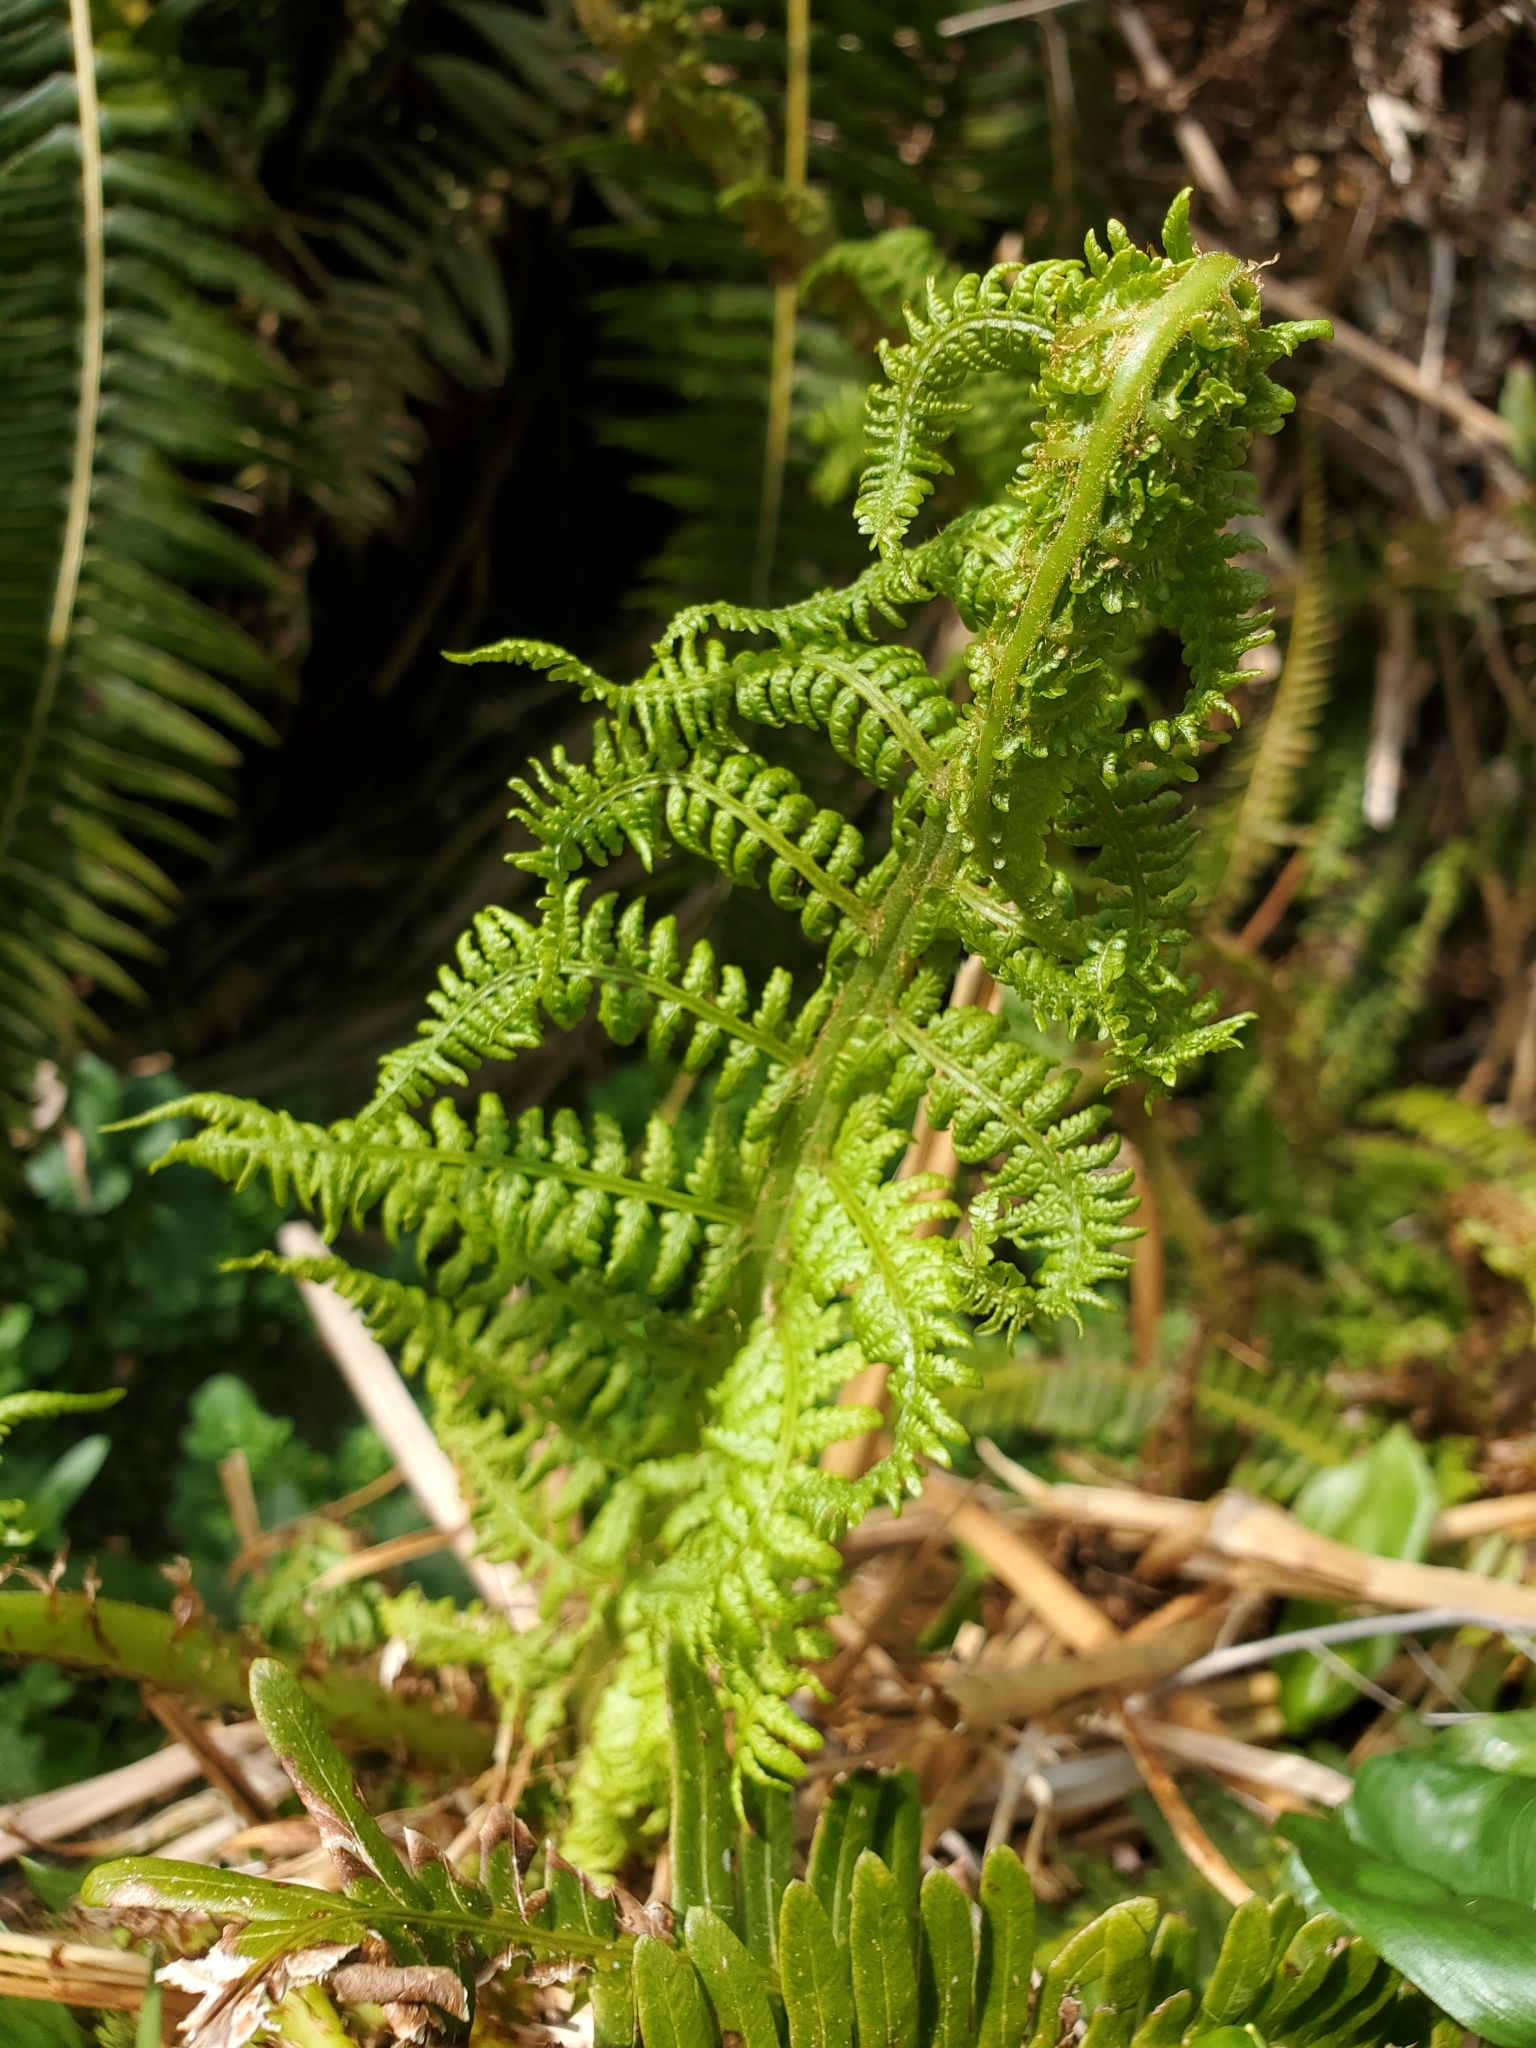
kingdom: Plantae
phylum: Tracheophyta
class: Polypodiopsida
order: Polypodiales
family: Athyriaceae
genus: Athyrium
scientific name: Athyrium filix-femina
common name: Lady fern
